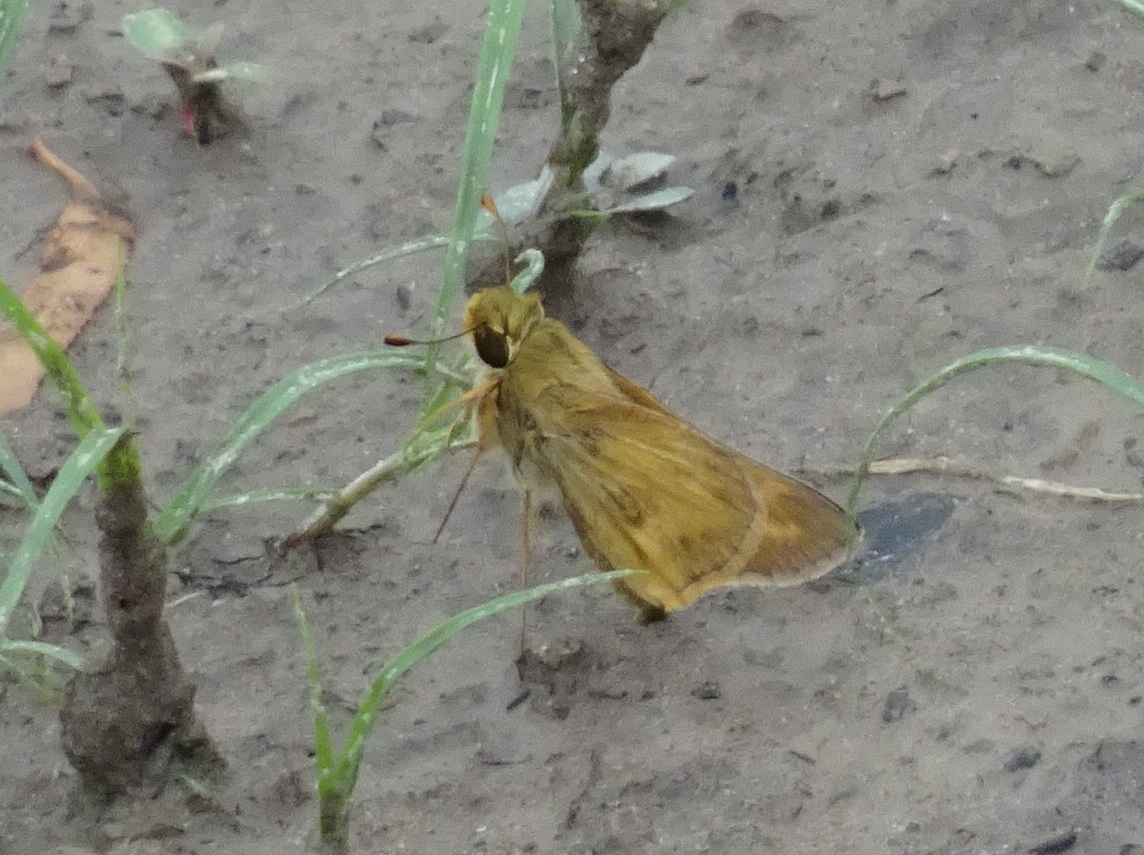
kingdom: Animalia
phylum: Arthropoda
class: Insecta
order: Lepidoptera
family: Hesperiidae
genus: Atalopedes
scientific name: Atalopedes
